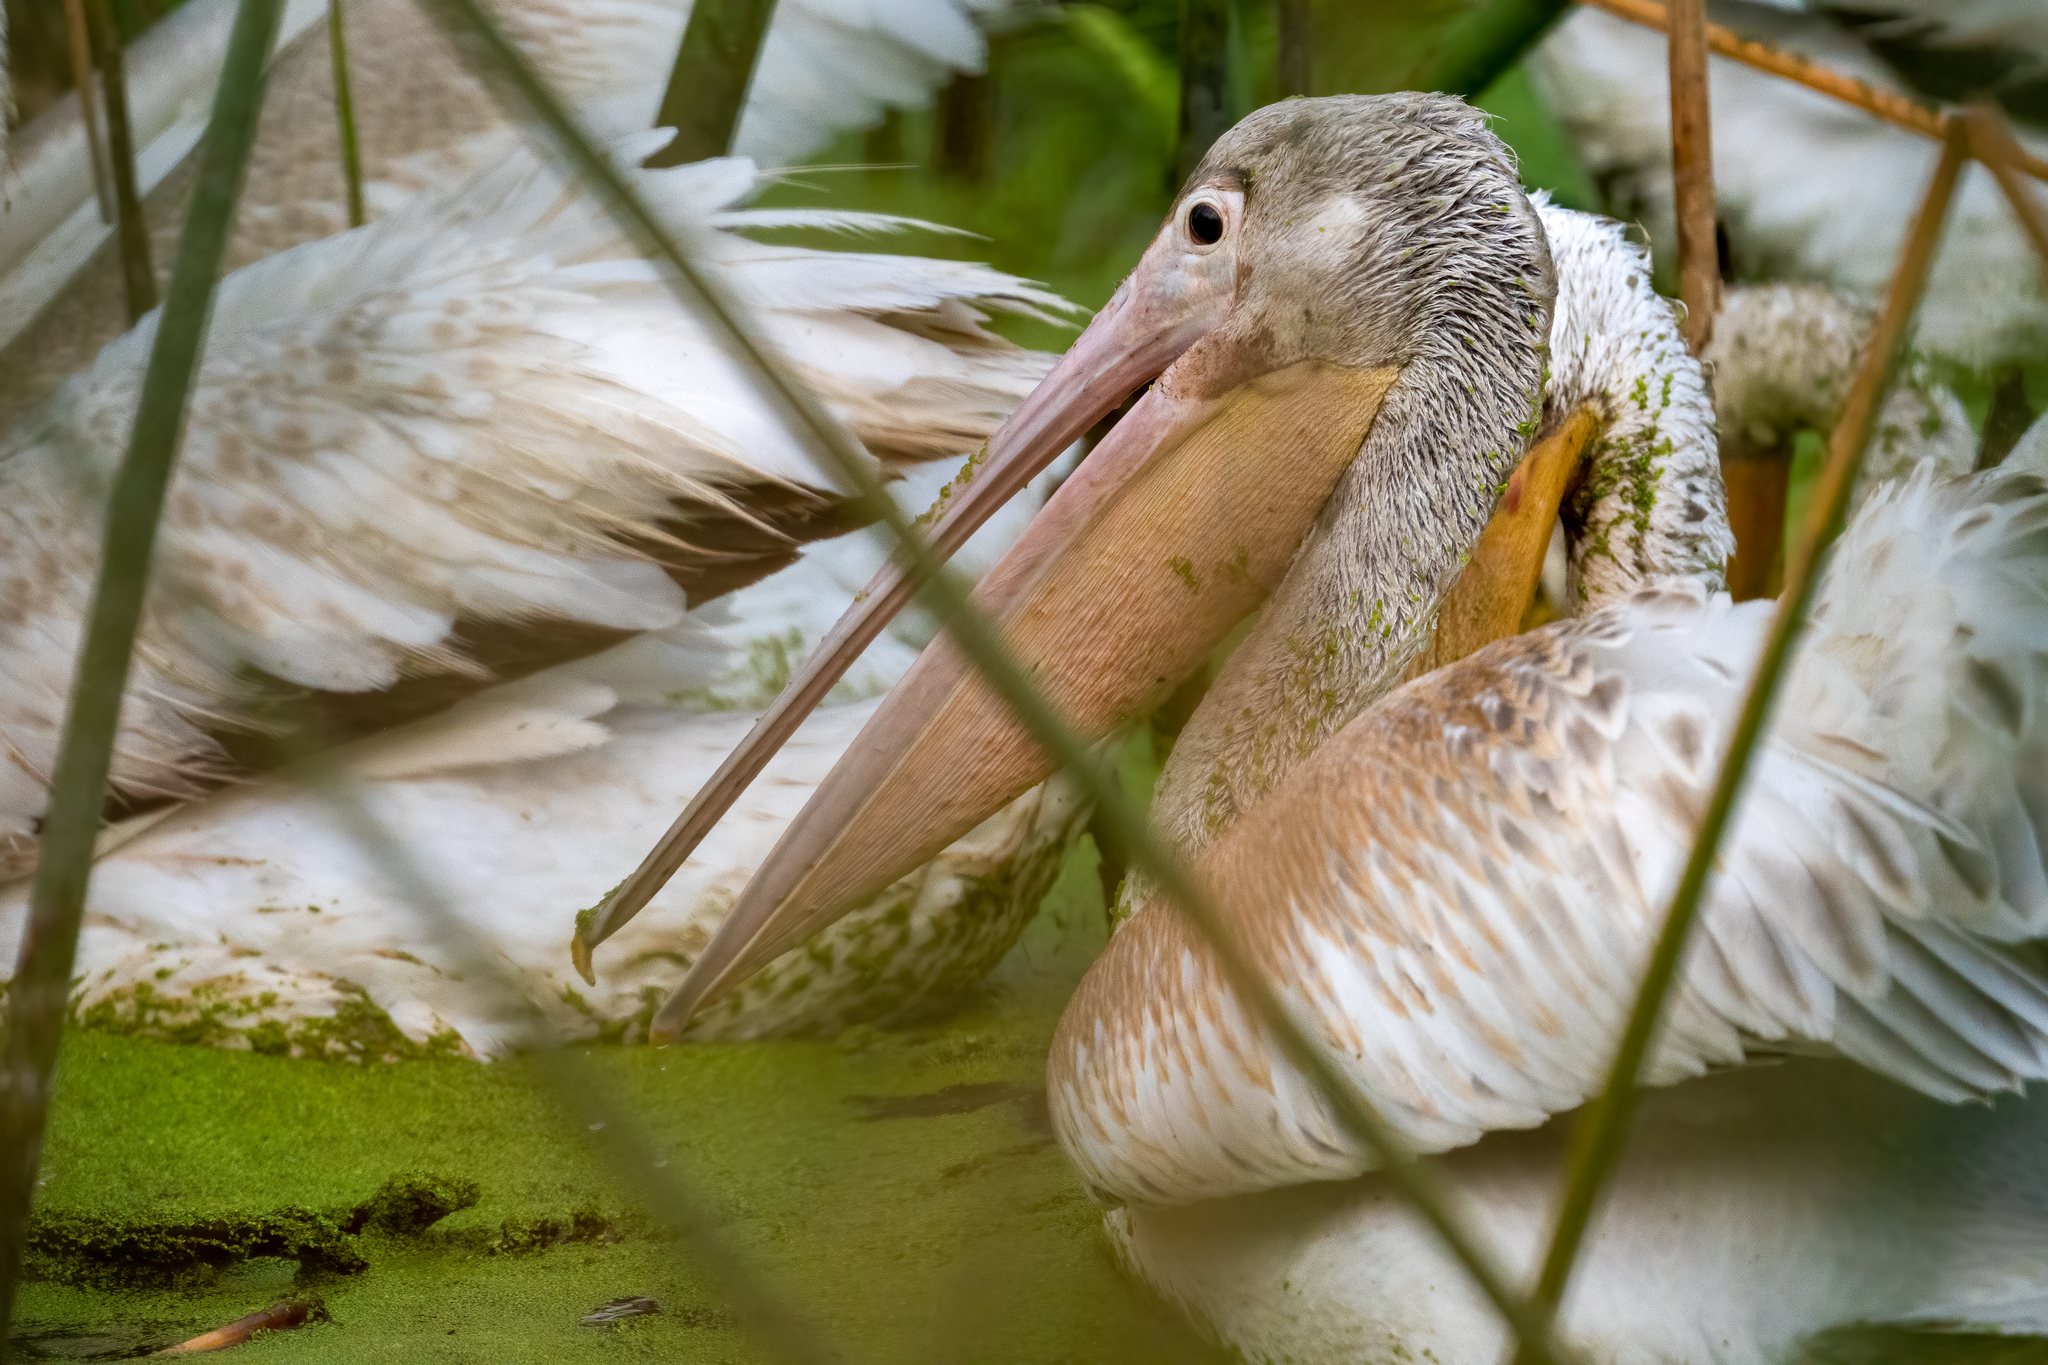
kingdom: Animalia
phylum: Chordata
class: Aves
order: Pelecaniformes
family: Pelecanidae
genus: Pelecanus
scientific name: Pelecanus erythrorhynchos
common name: American white pelican
